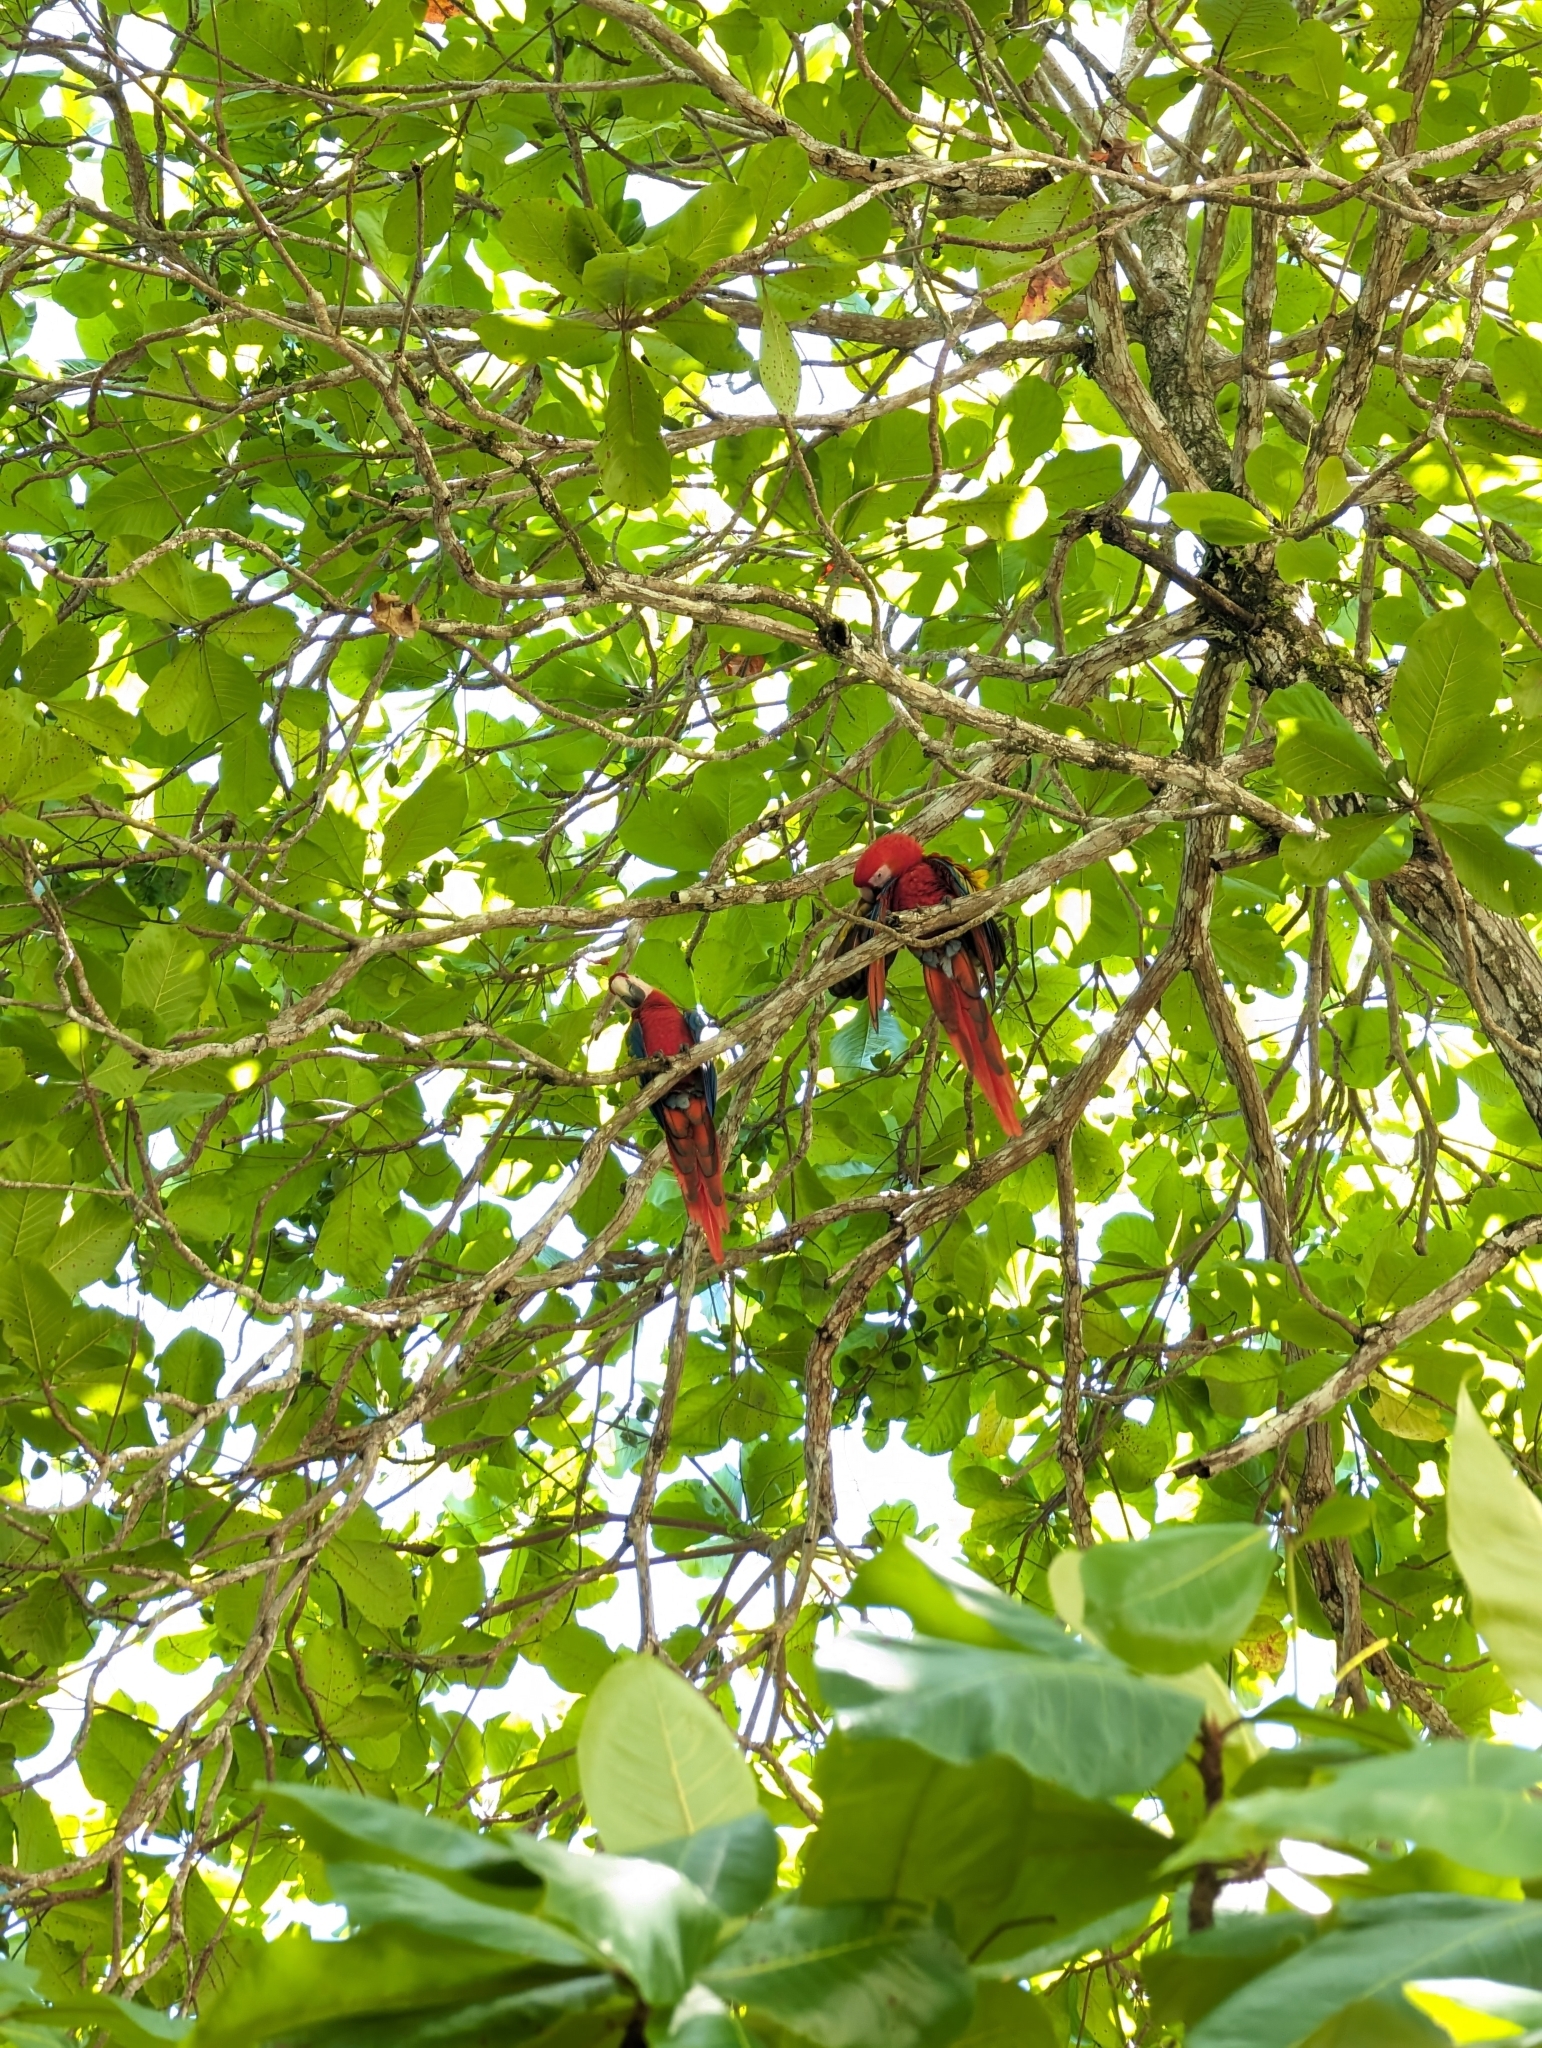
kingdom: Animalia
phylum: Chordata
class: Aves
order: Psittaciformes
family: Psittacidae
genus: Ara
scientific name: Ara macao
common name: Scarlet macaw
